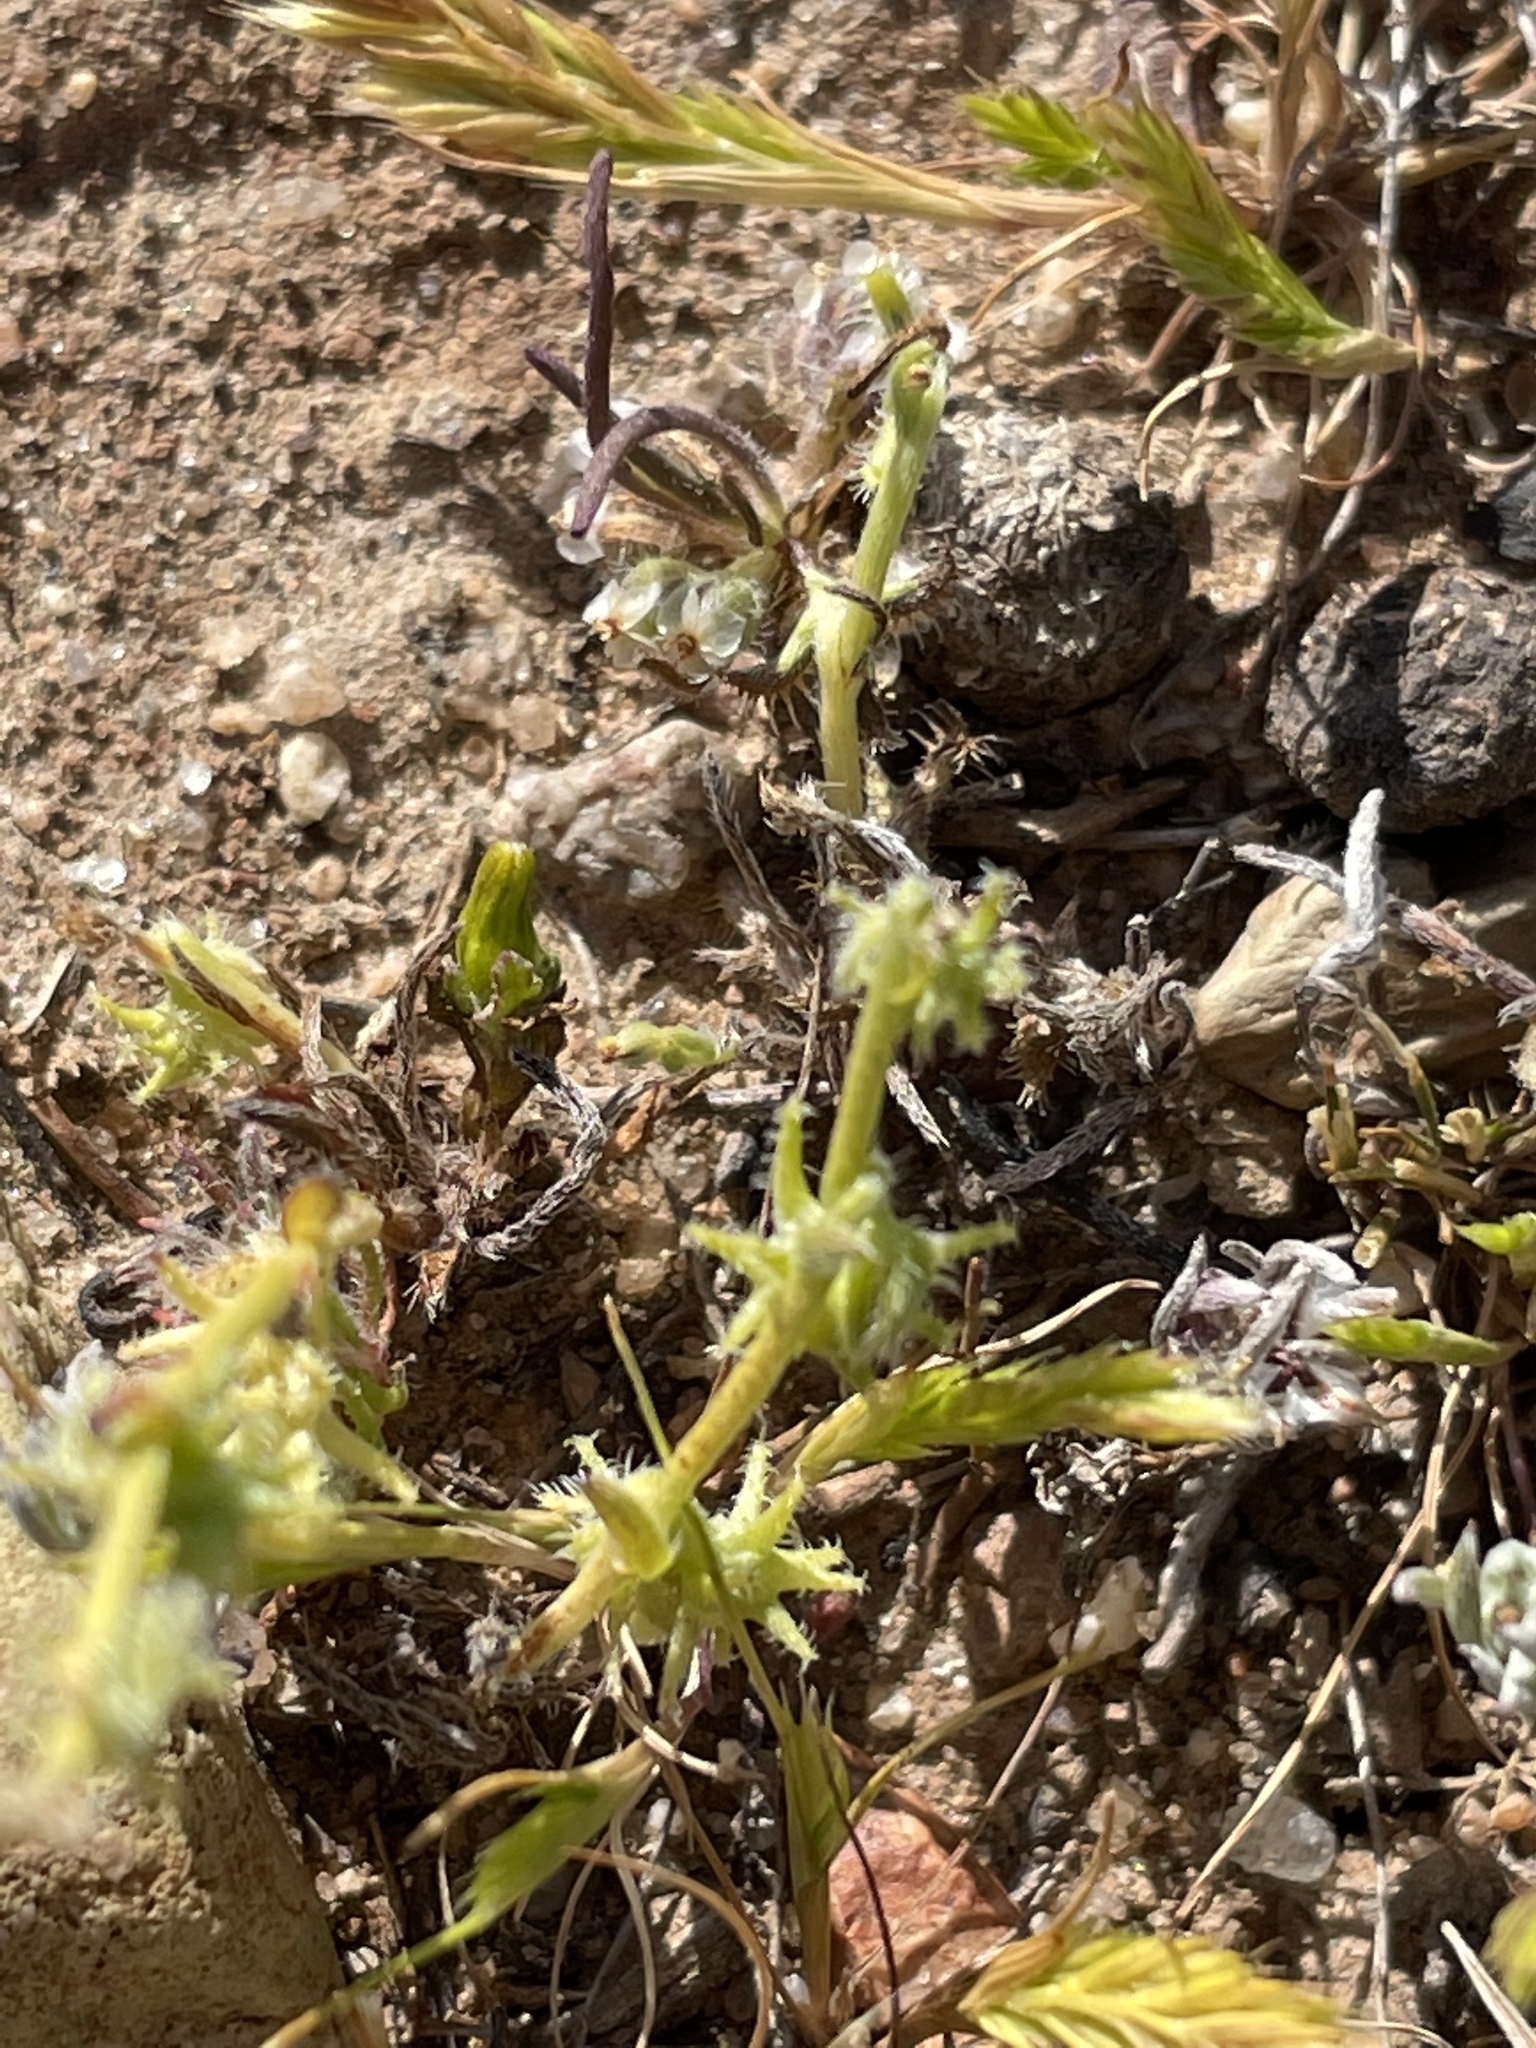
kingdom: Plantae
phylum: Tracheophyta
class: Magnoliopsida
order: Boraginales
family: Boraginaceae
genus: Harpagonella
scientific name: Harpagonella palmeri
